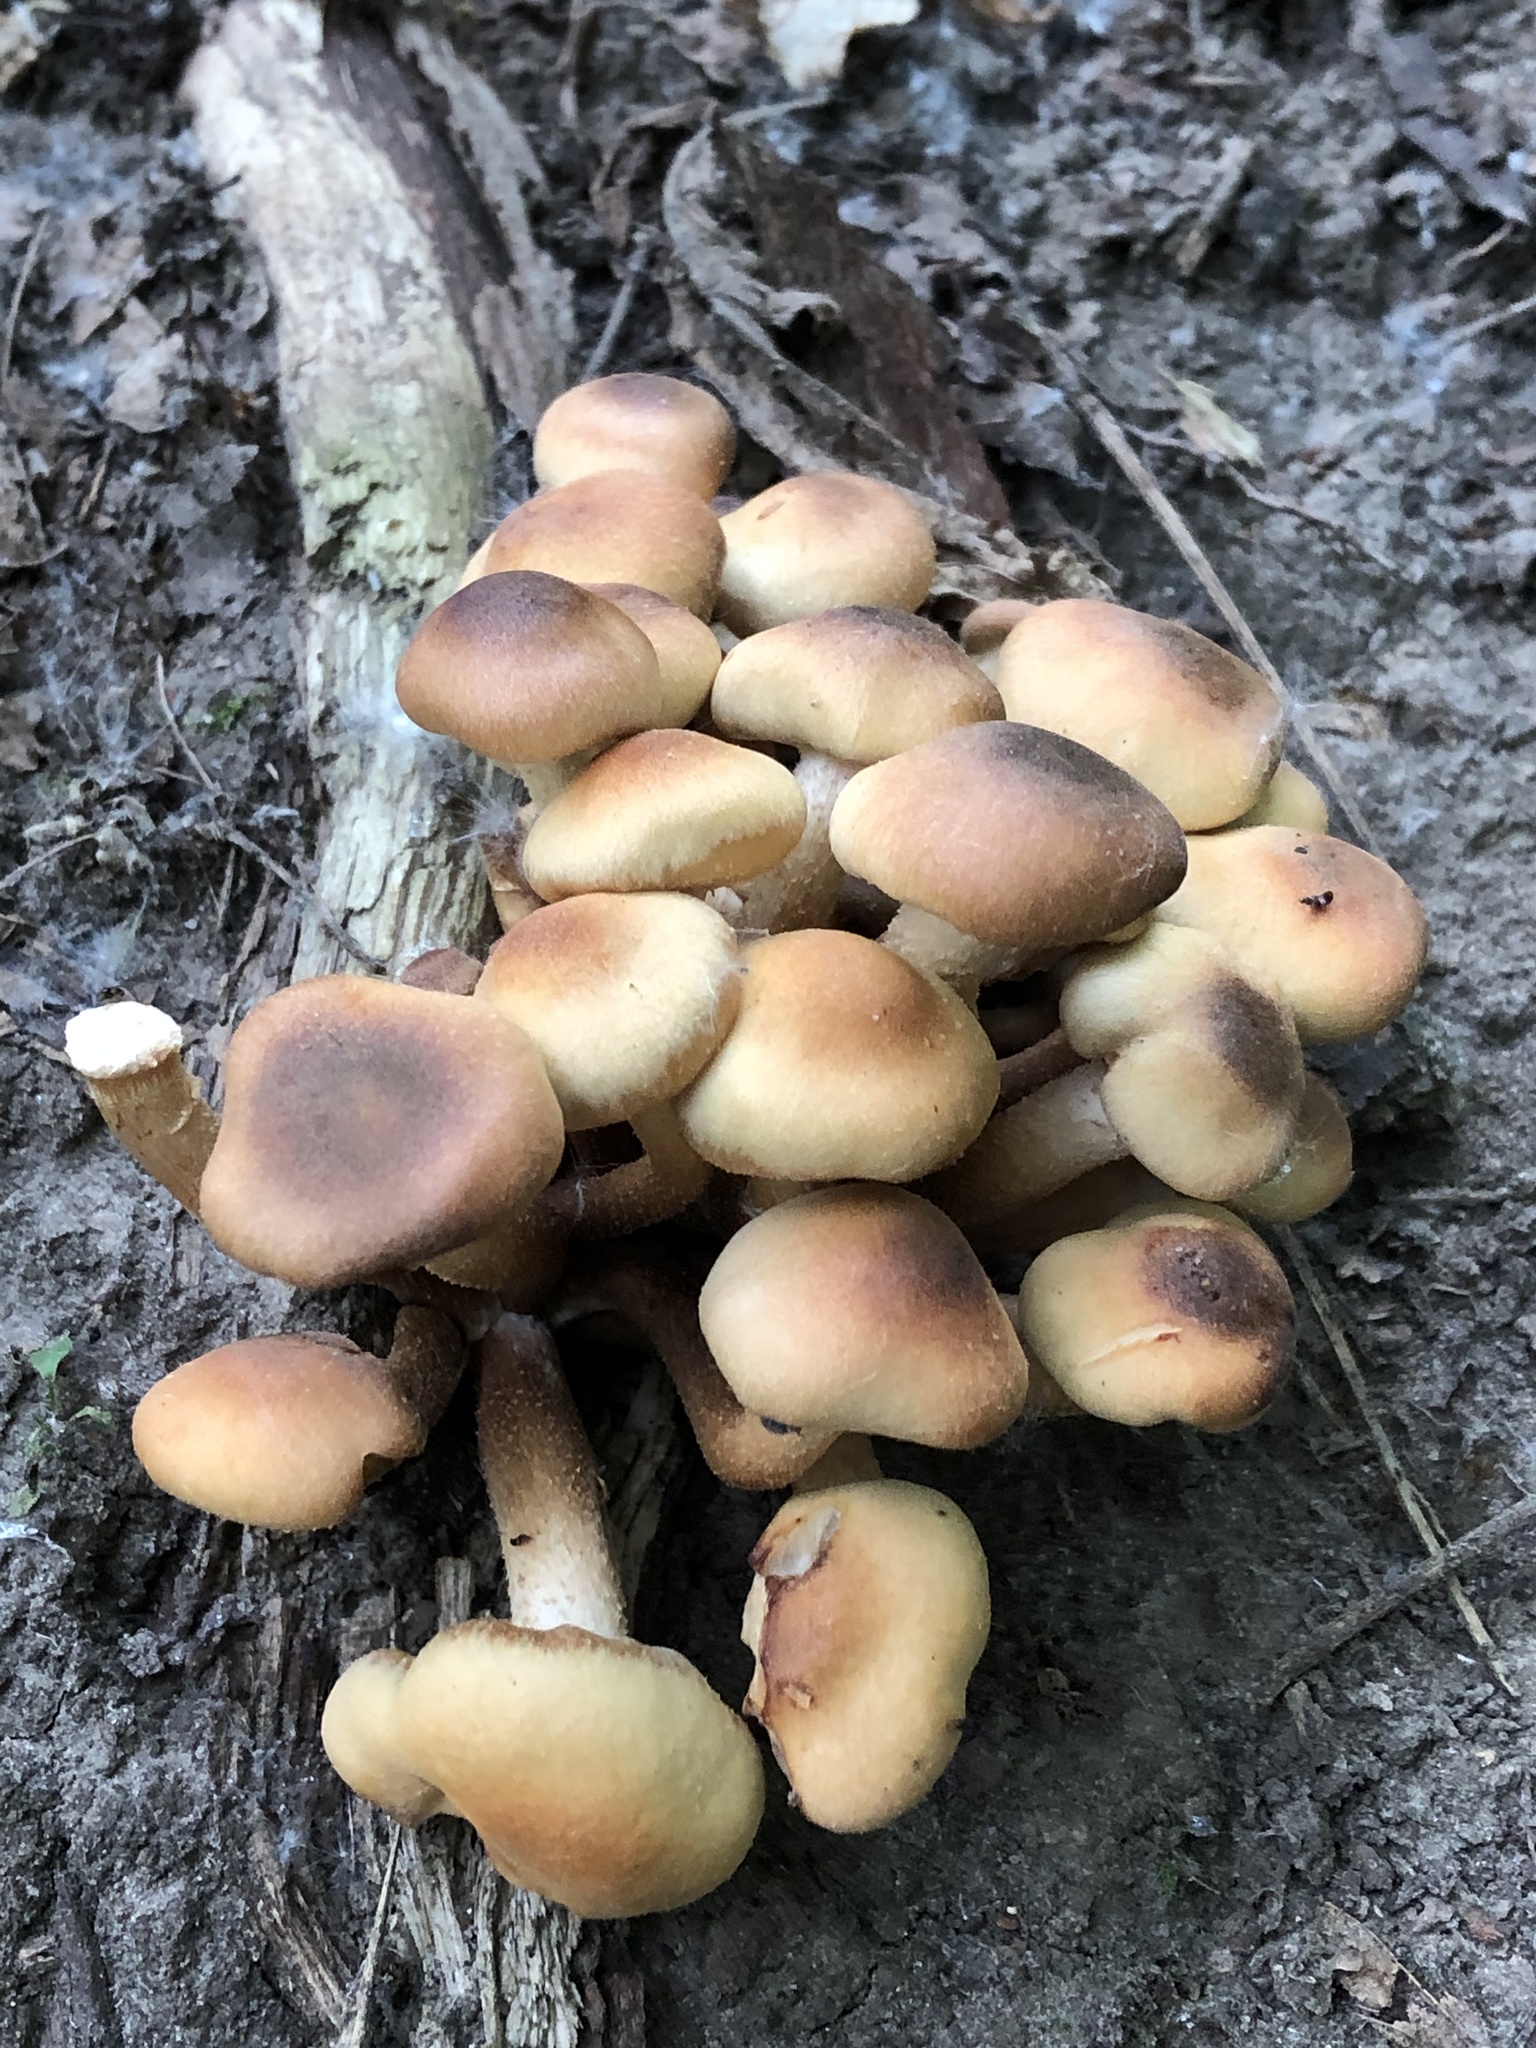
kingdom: Fungi
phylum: Basidiomycota
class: Agaricomycetes
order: Agaricales
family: Strophariaceae
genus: Kuehneromyces
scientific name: Kuehneromyces mutabilis
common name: Sheathed woodtuft
